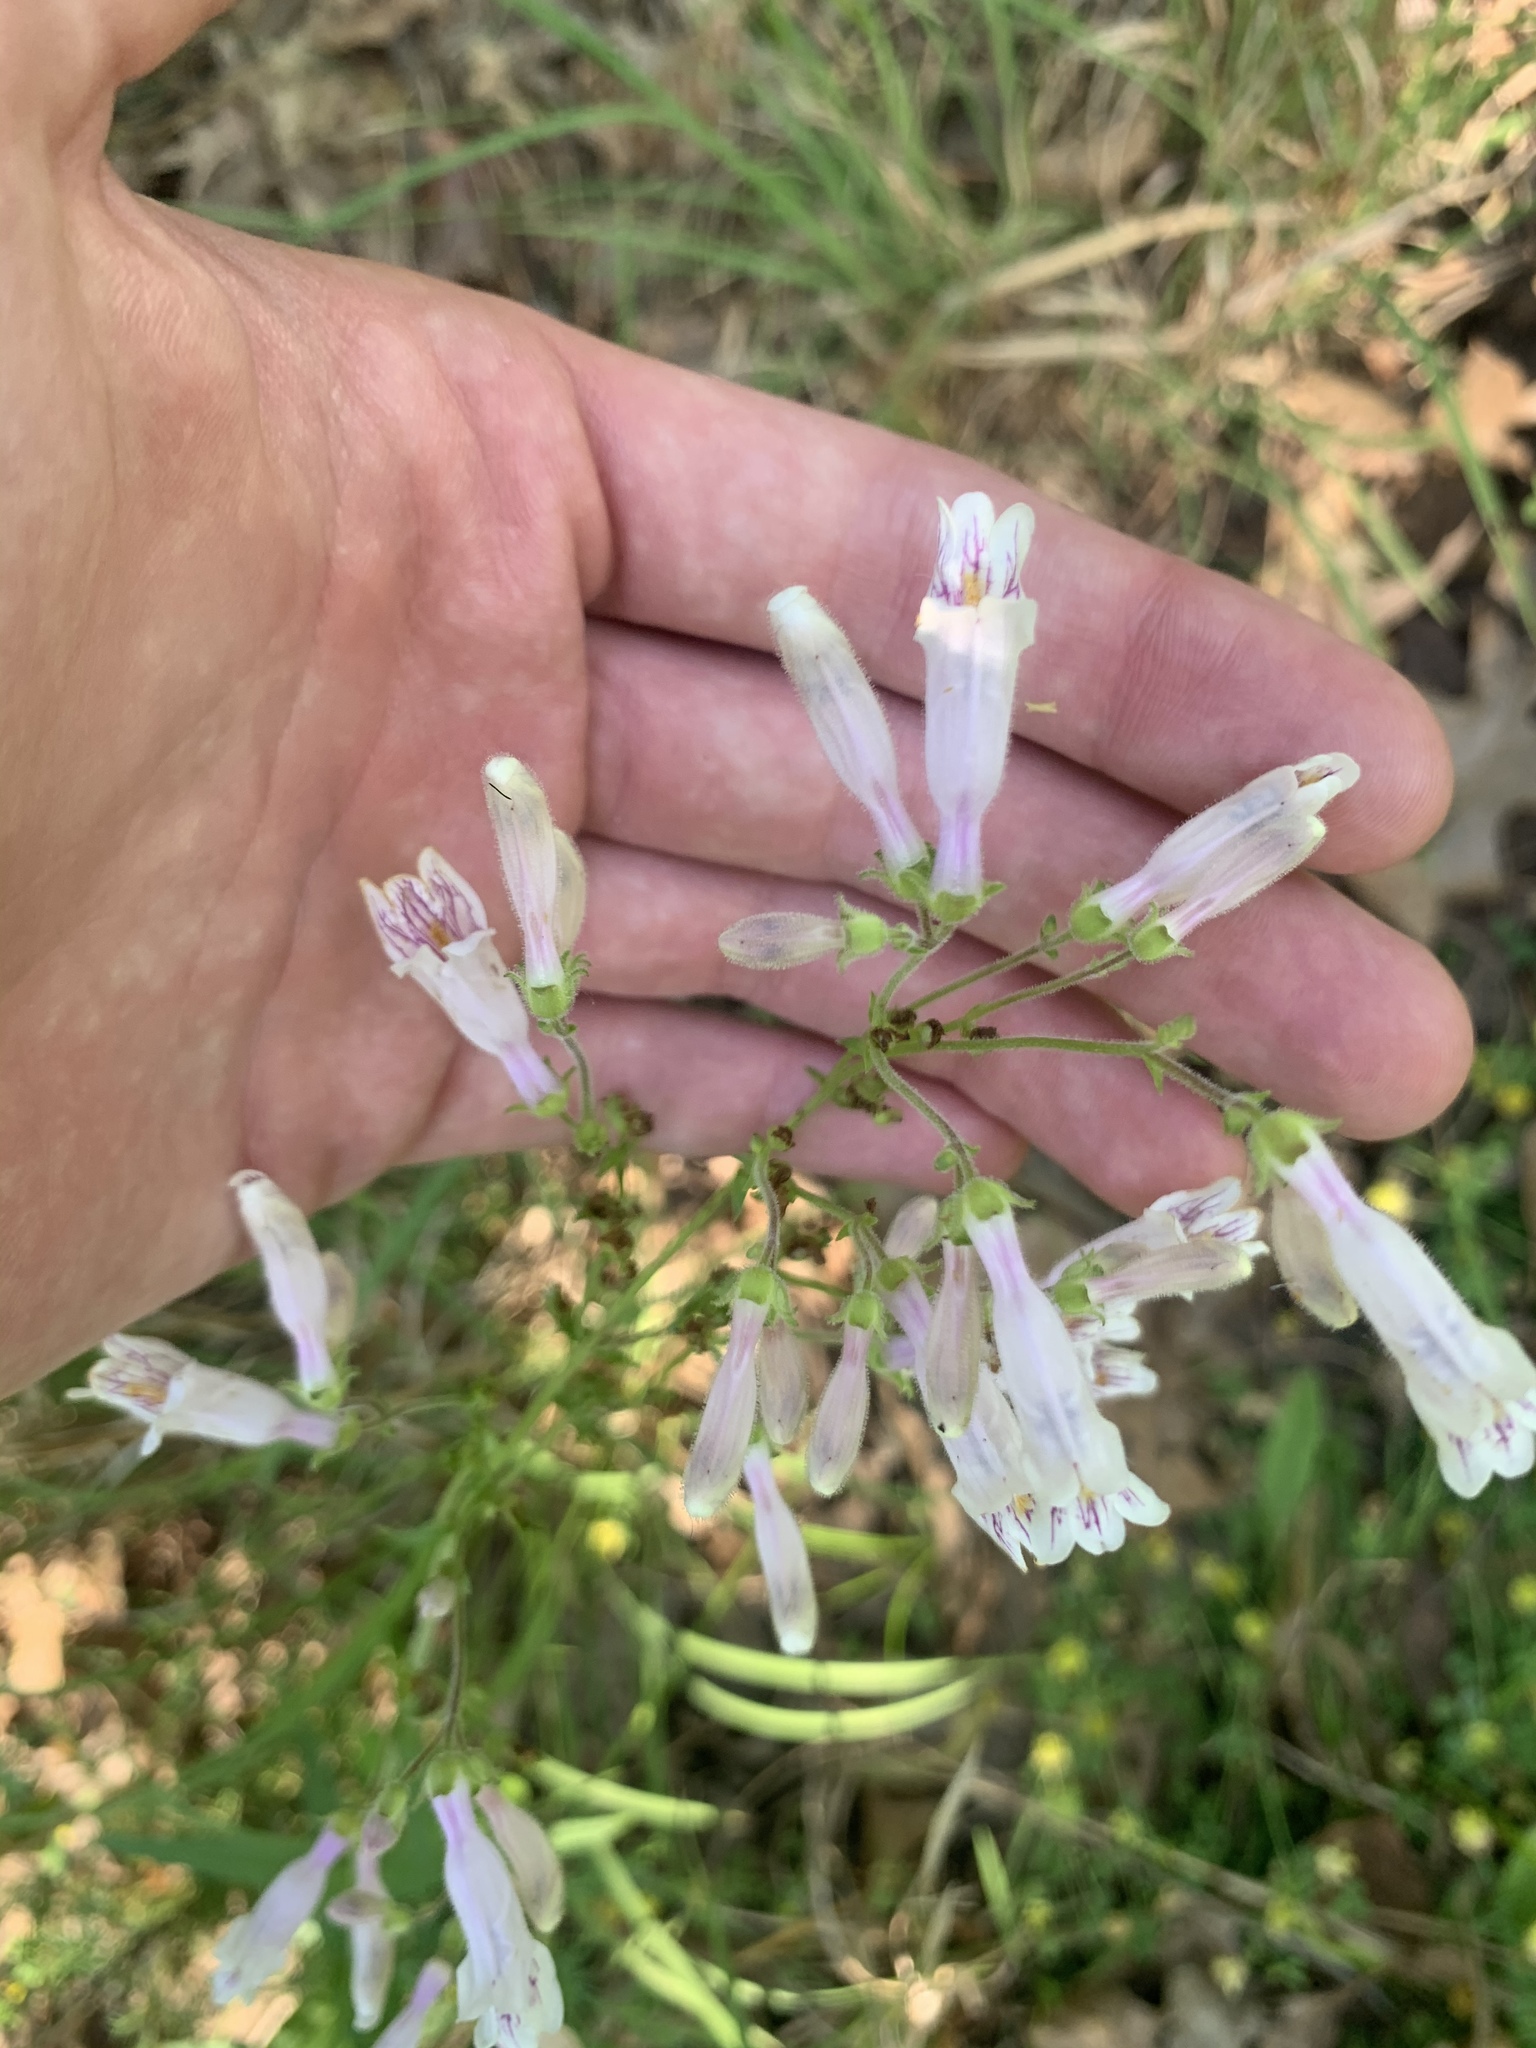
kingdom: Plantae
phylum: Tracheophyta
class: Magnoliopsida
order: Lamiales
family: Plantaginaceae
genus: Penstemon
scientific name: Penstemon laxiflorus
